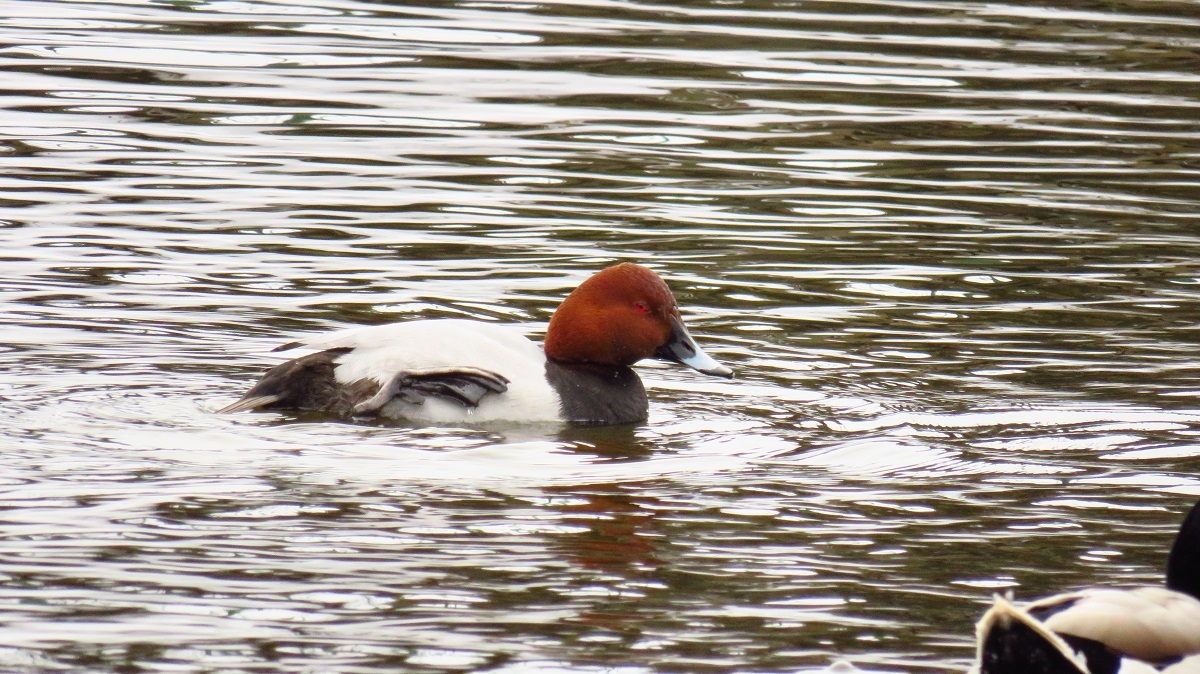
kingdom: Animalia
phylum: Chordata
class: Aves
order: Anseriformes
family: Anatidae
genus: Aythya
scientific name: Aythya ferina
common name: Common pochard
